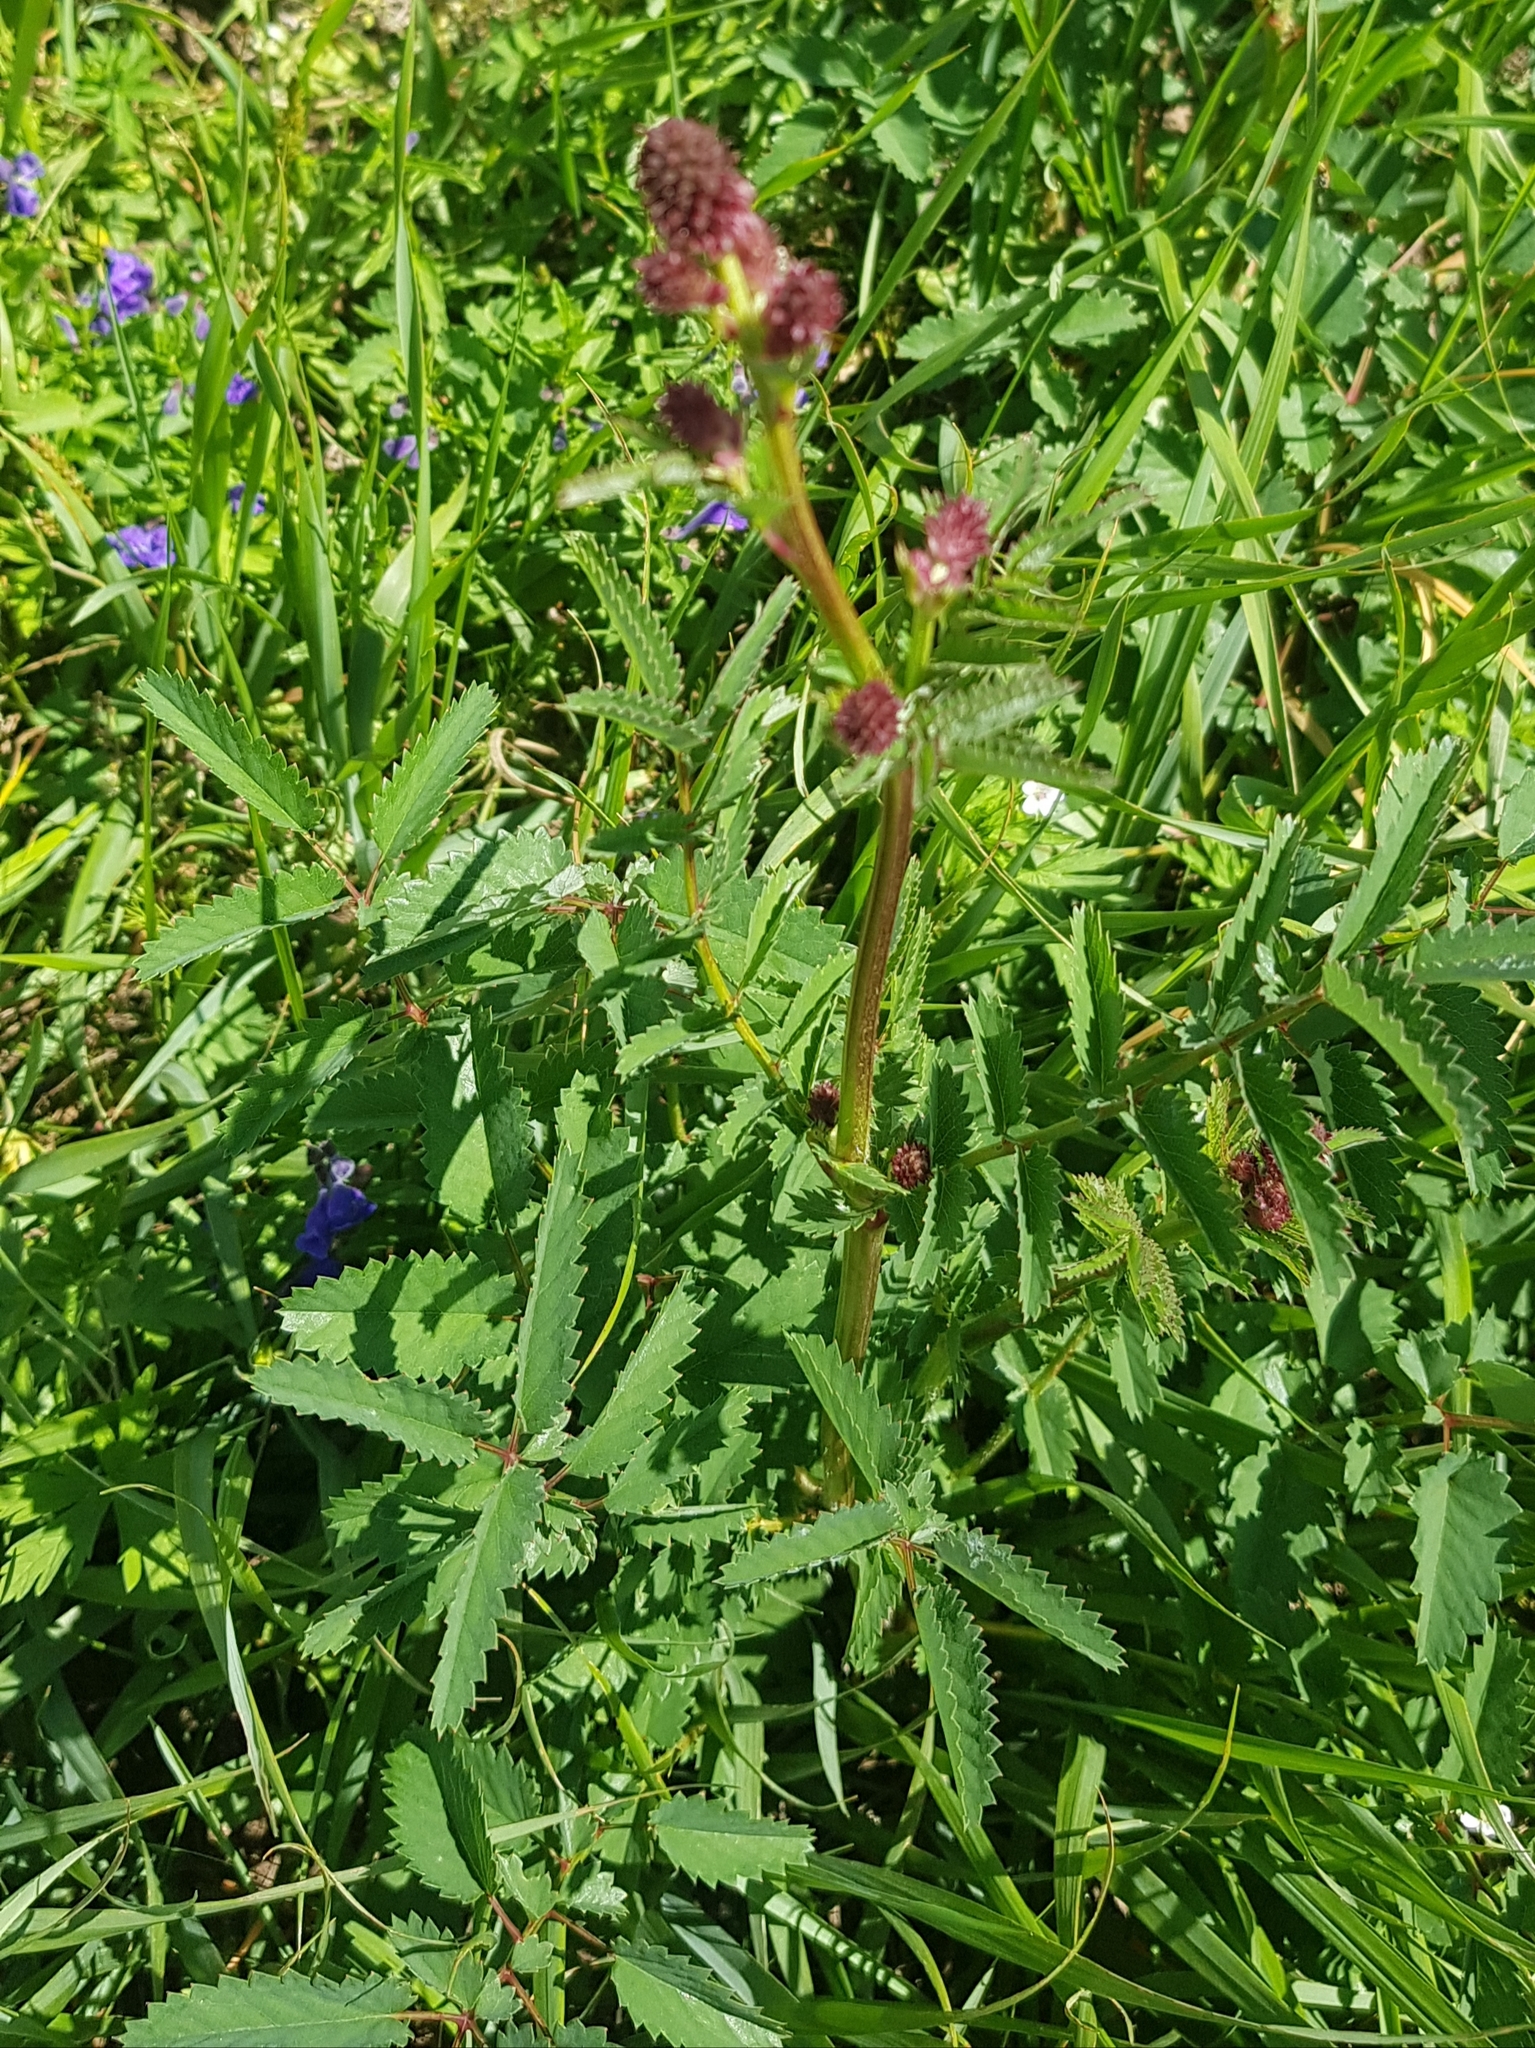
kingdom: Plantae
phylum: Tracheophyta
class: Magnoliopsida
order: Rosales
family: Rosaceae
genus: Sanguisorba
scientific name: Sanguisorba officinalis
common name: Great burnet
